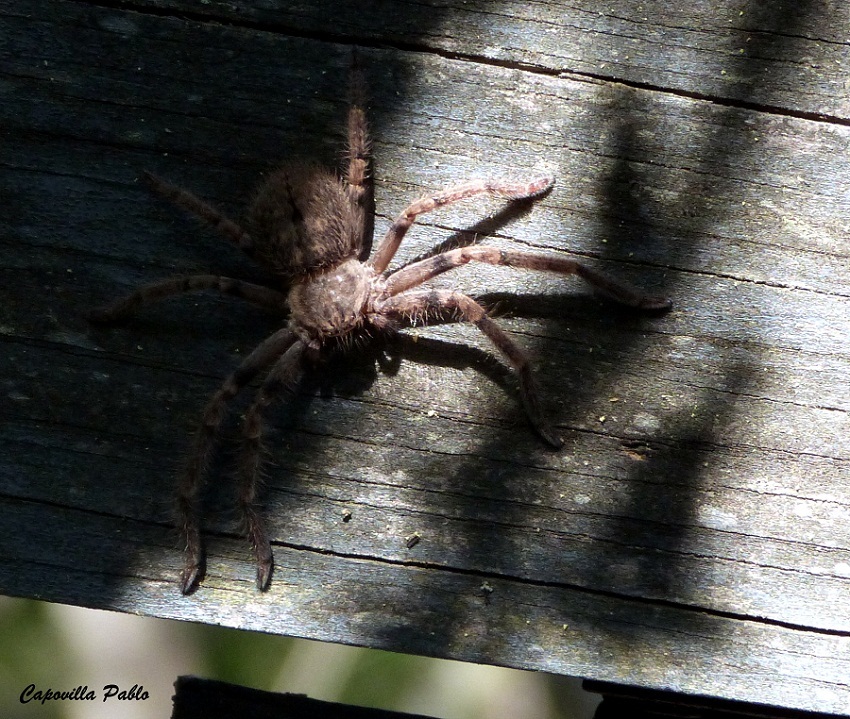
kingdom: Animalia
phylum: Arthropoda
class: Arachnida
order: Araneae
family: Sparassidae
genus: Polybetes
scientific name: Polybetes pythagoricus
